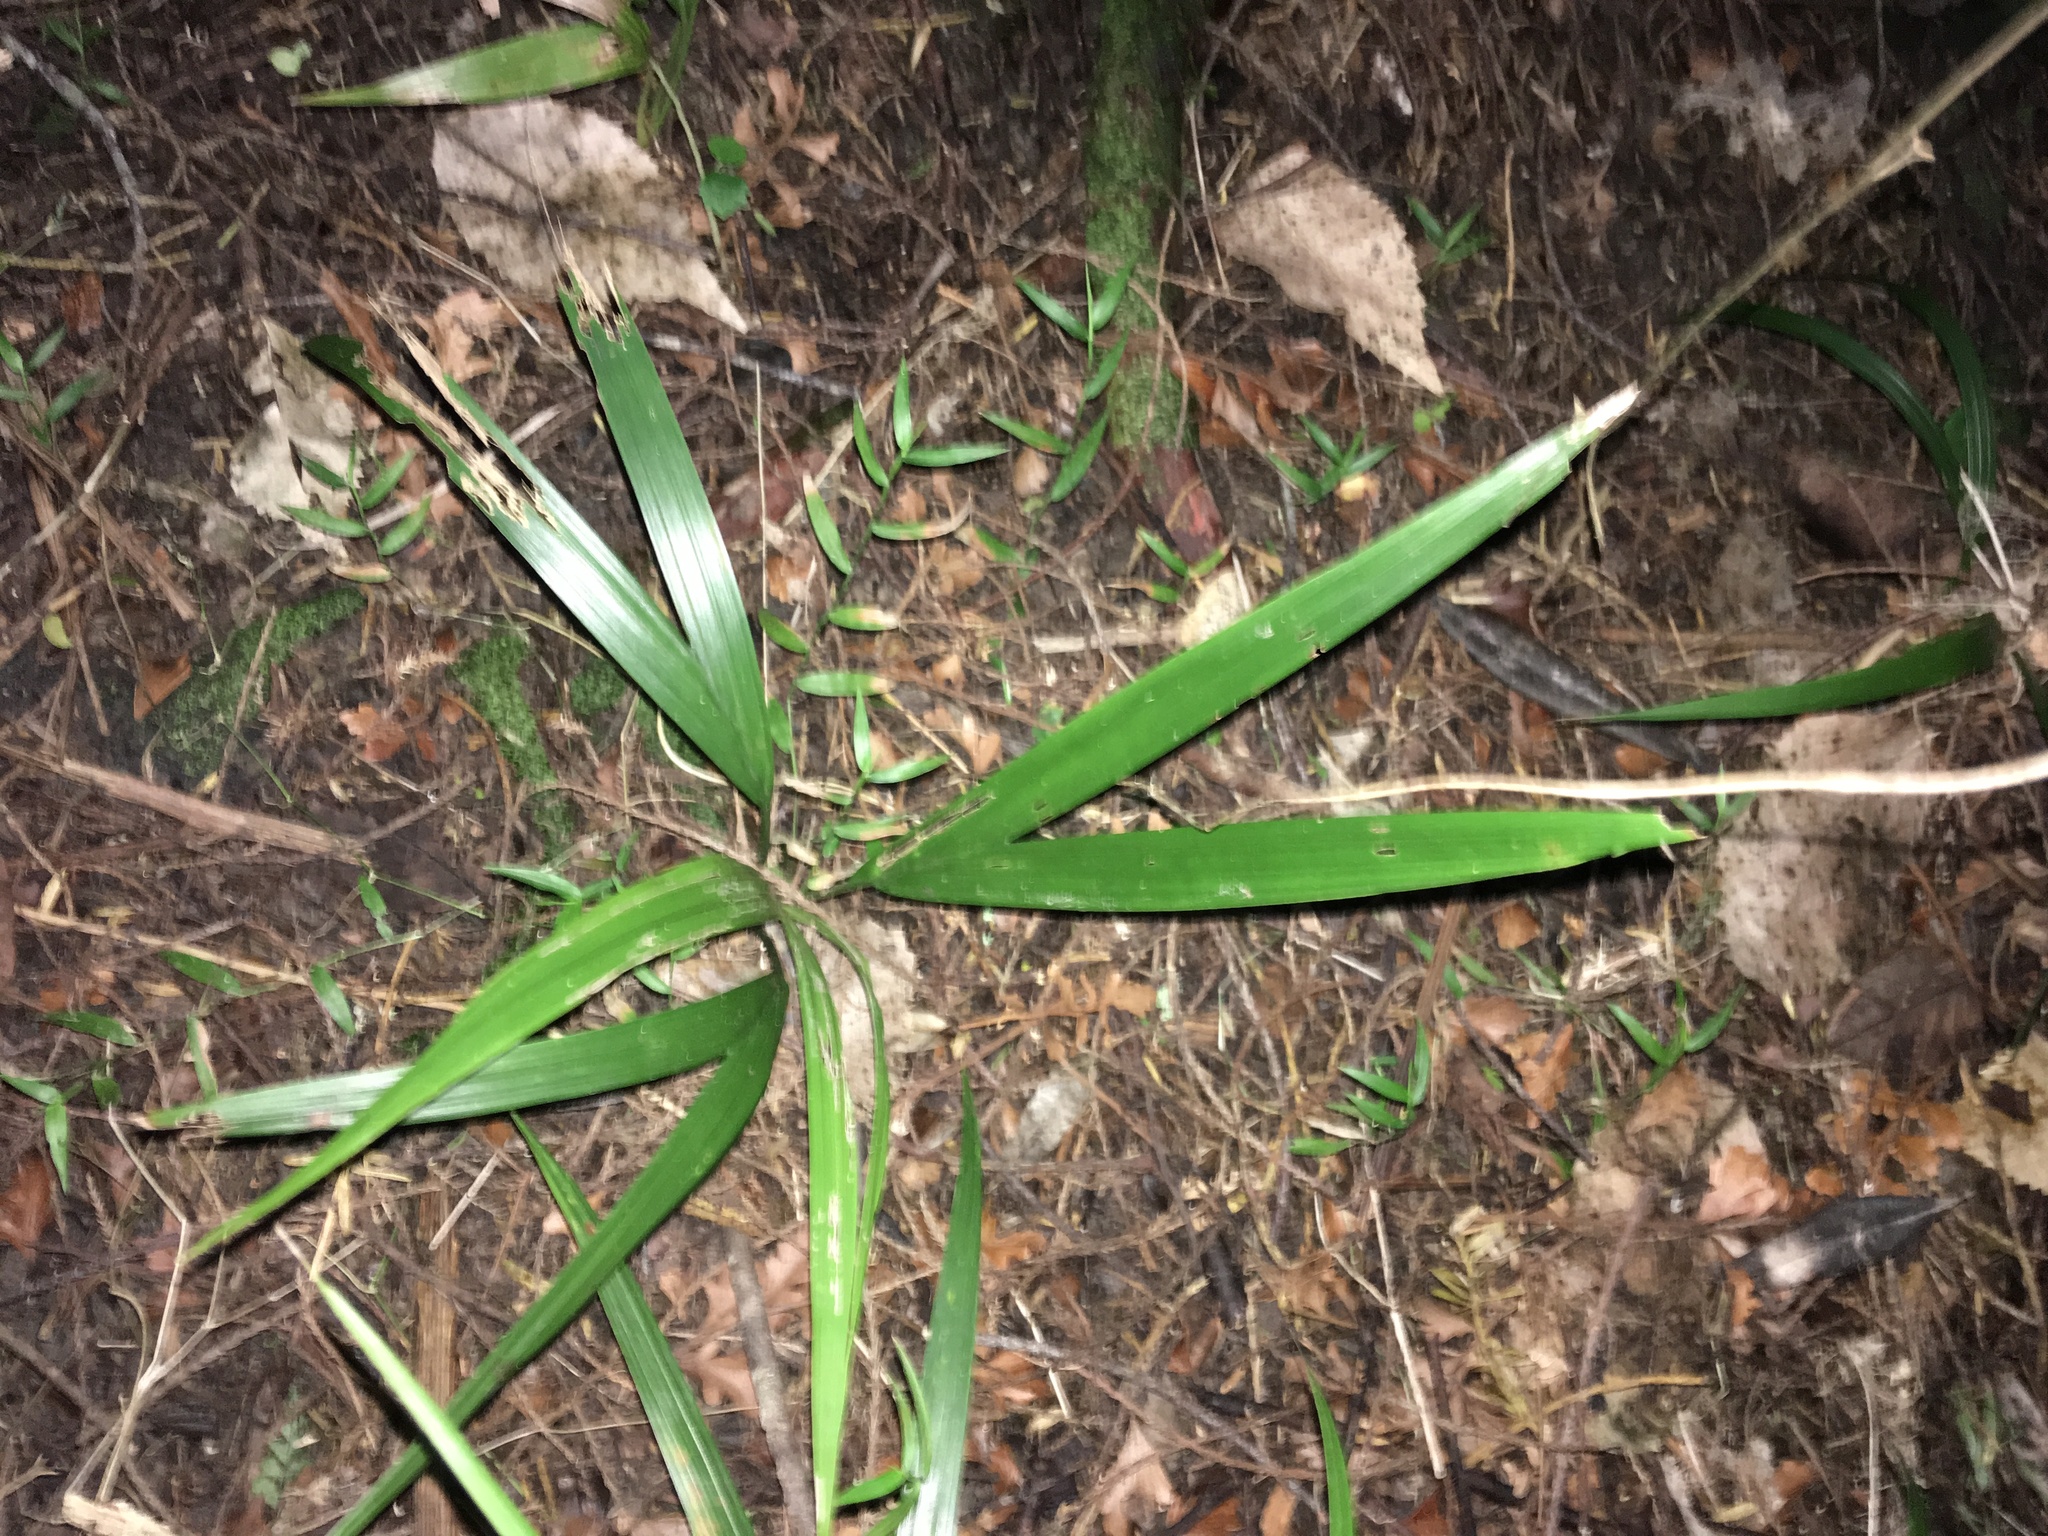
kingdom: Plantae
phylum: Tracheophyta
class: Liliopsida
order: Arecales
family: Arecaceae
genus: Rhopalostylis
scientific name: Rhopalostylis sapida
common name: Feather-duster palm
